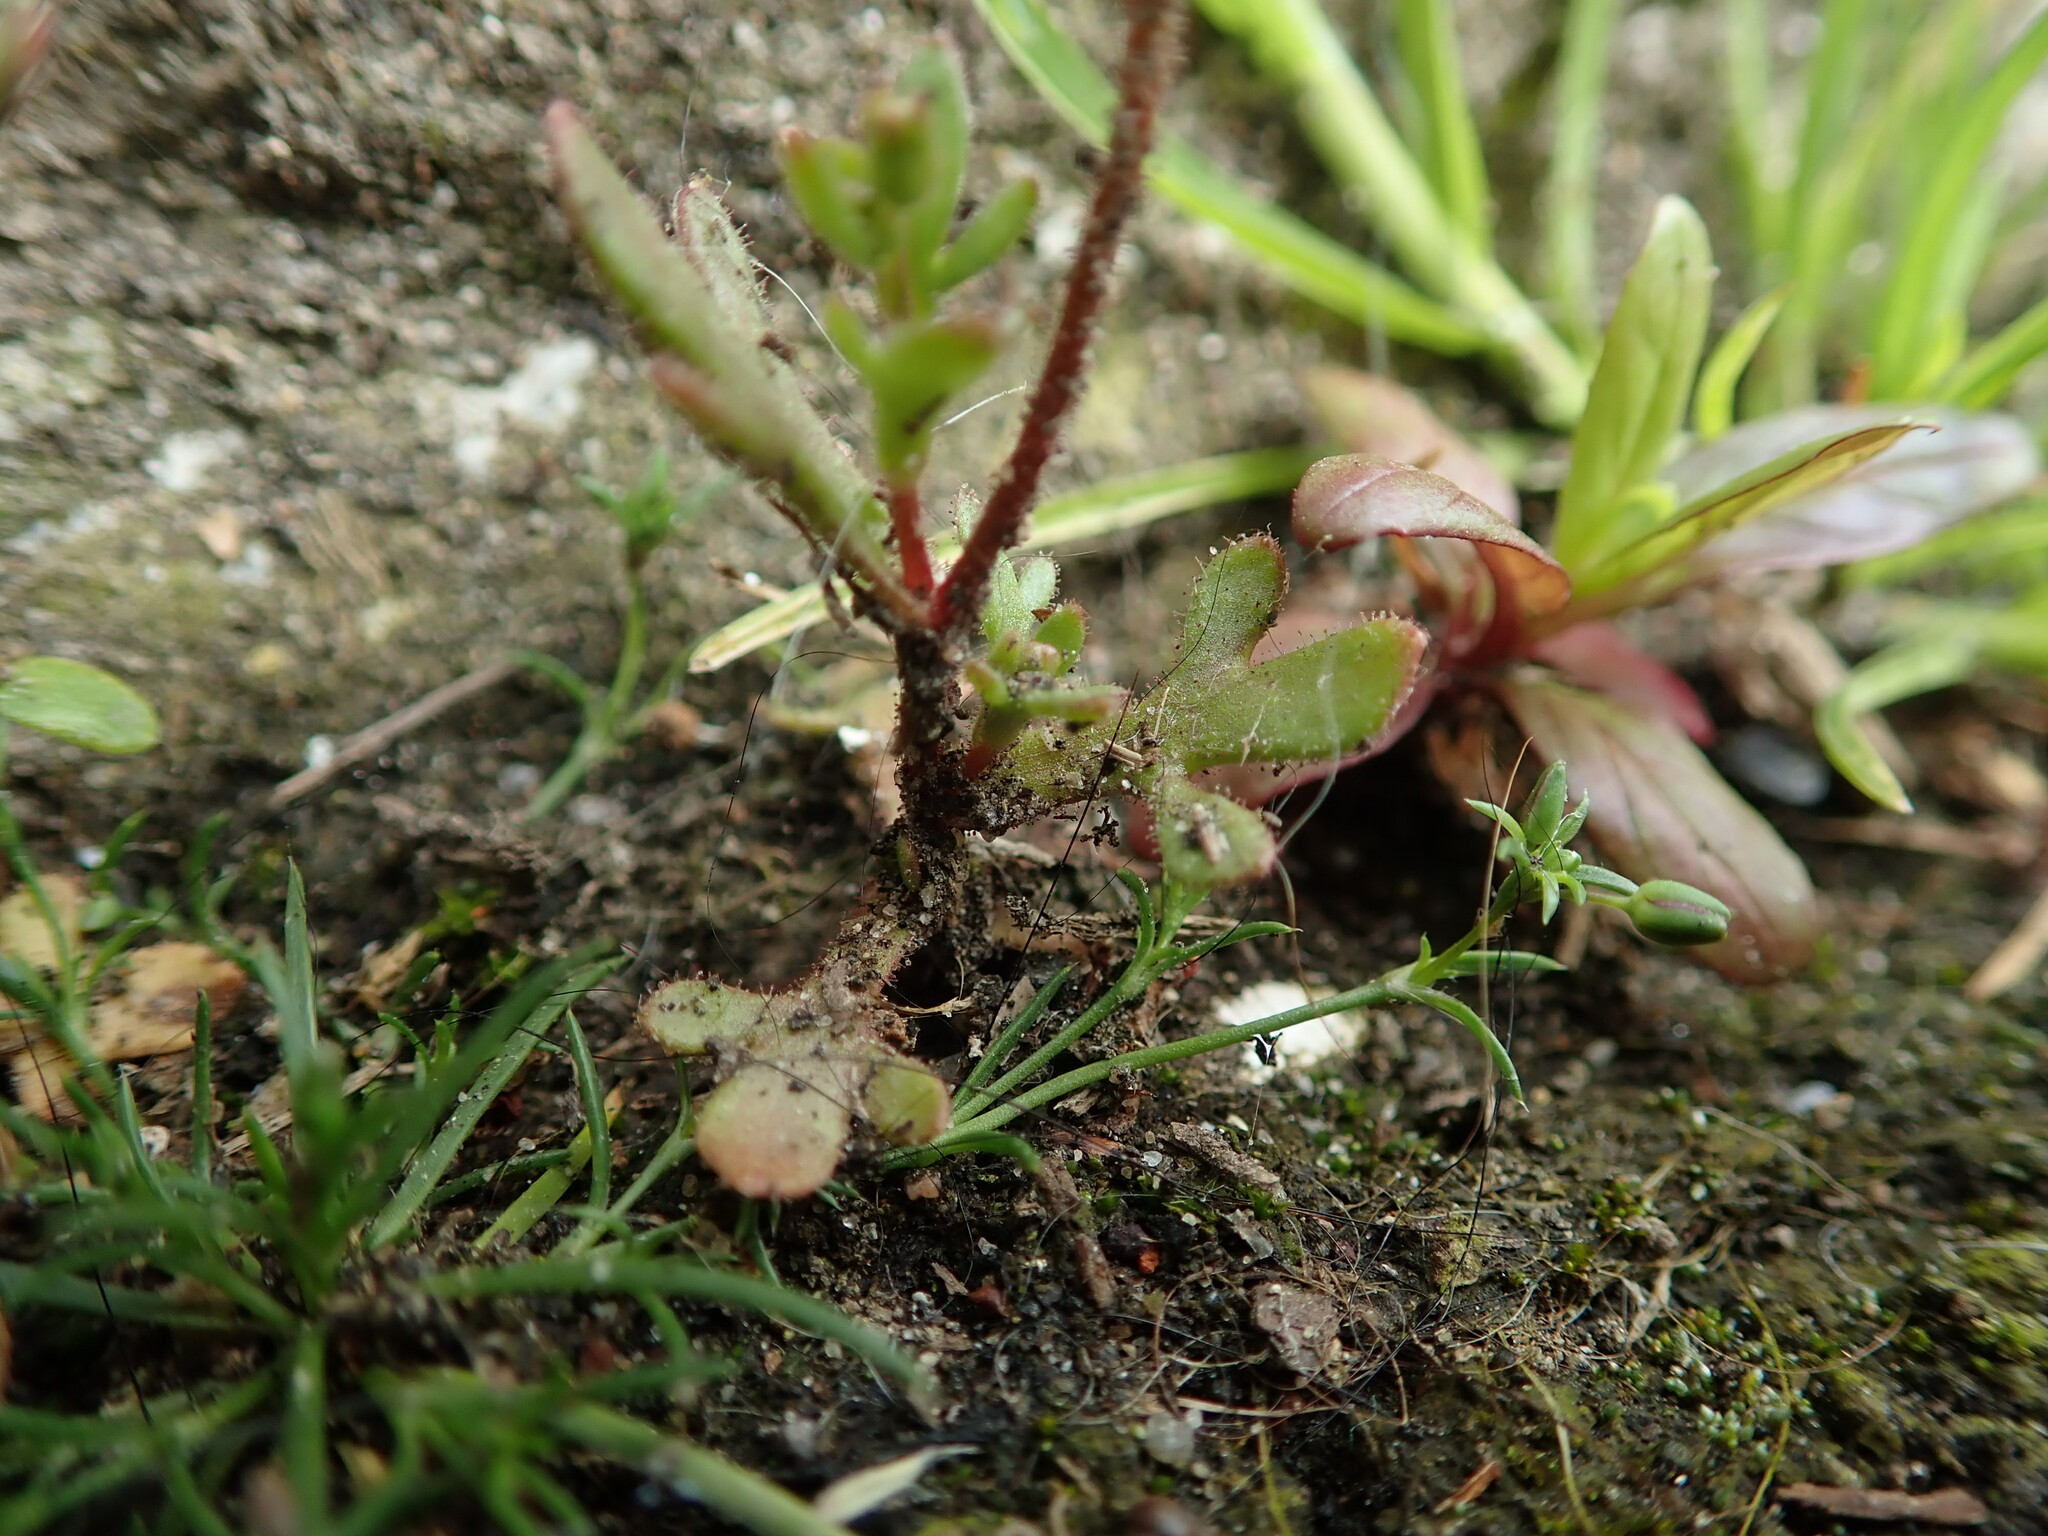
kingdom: Plantae
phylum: Tracheophyta
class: Magnoliopsida
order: Saxifragales
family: Saxifragaceae
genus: Saxifraga
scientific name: Saxifraga tridactylites
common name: Rue-leaved saxifrage
